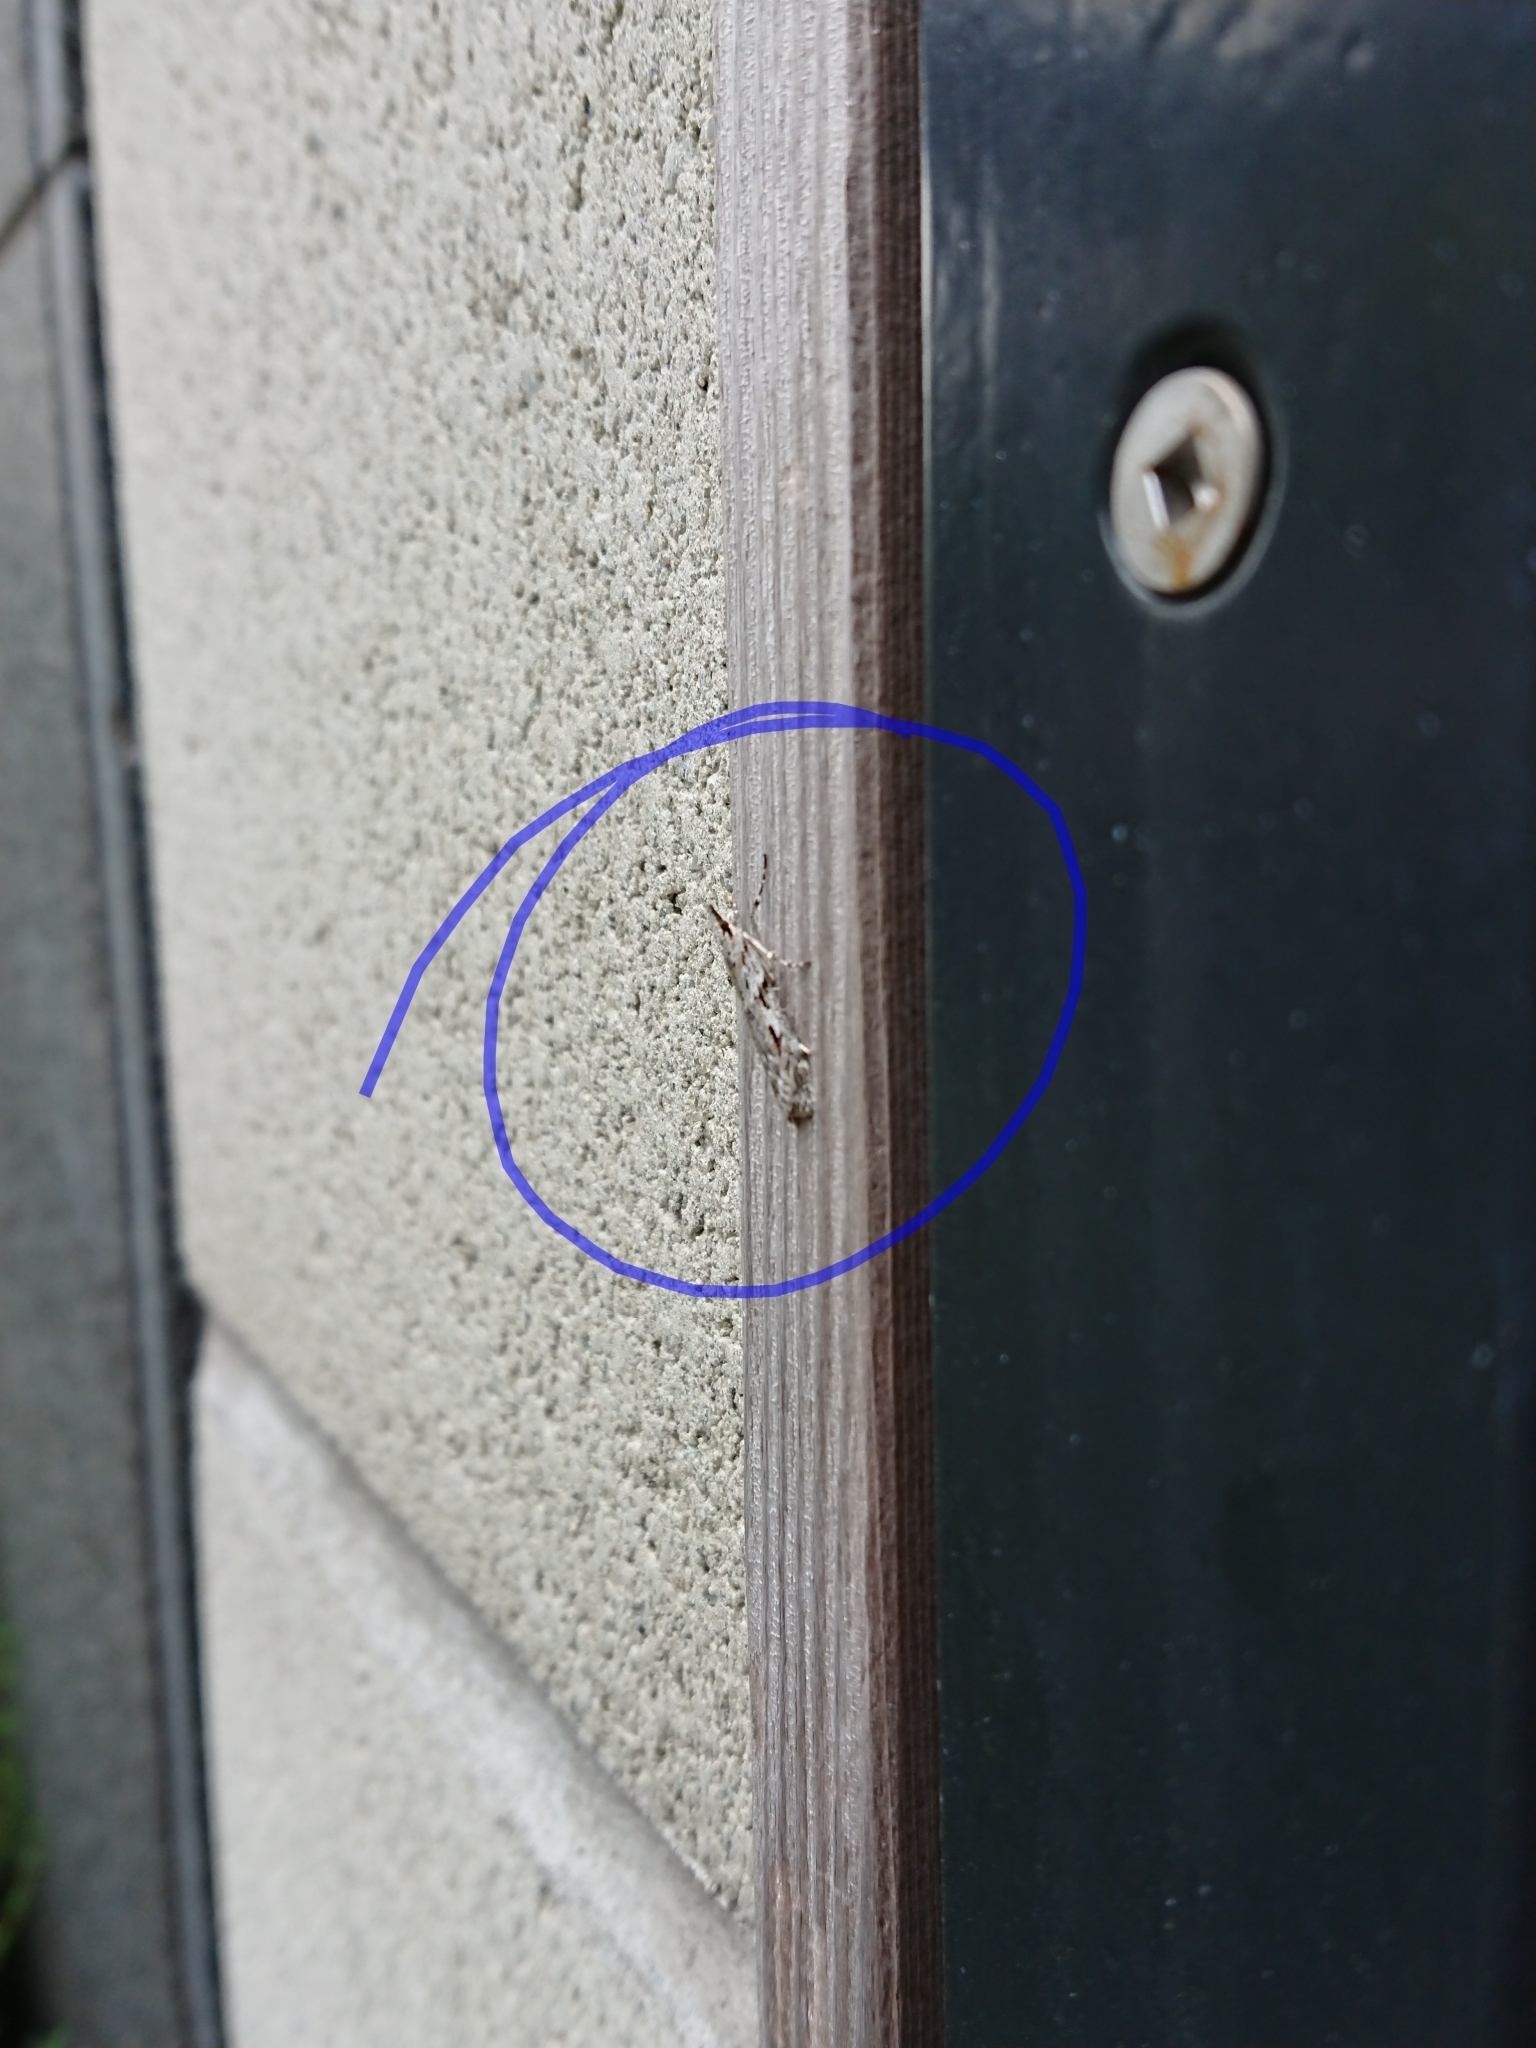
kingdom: Animalia
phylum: Arthropoda
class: Insecta
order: Lepidoptera
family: Crambidae
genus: Scoparia
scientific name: Scoparia halopis
